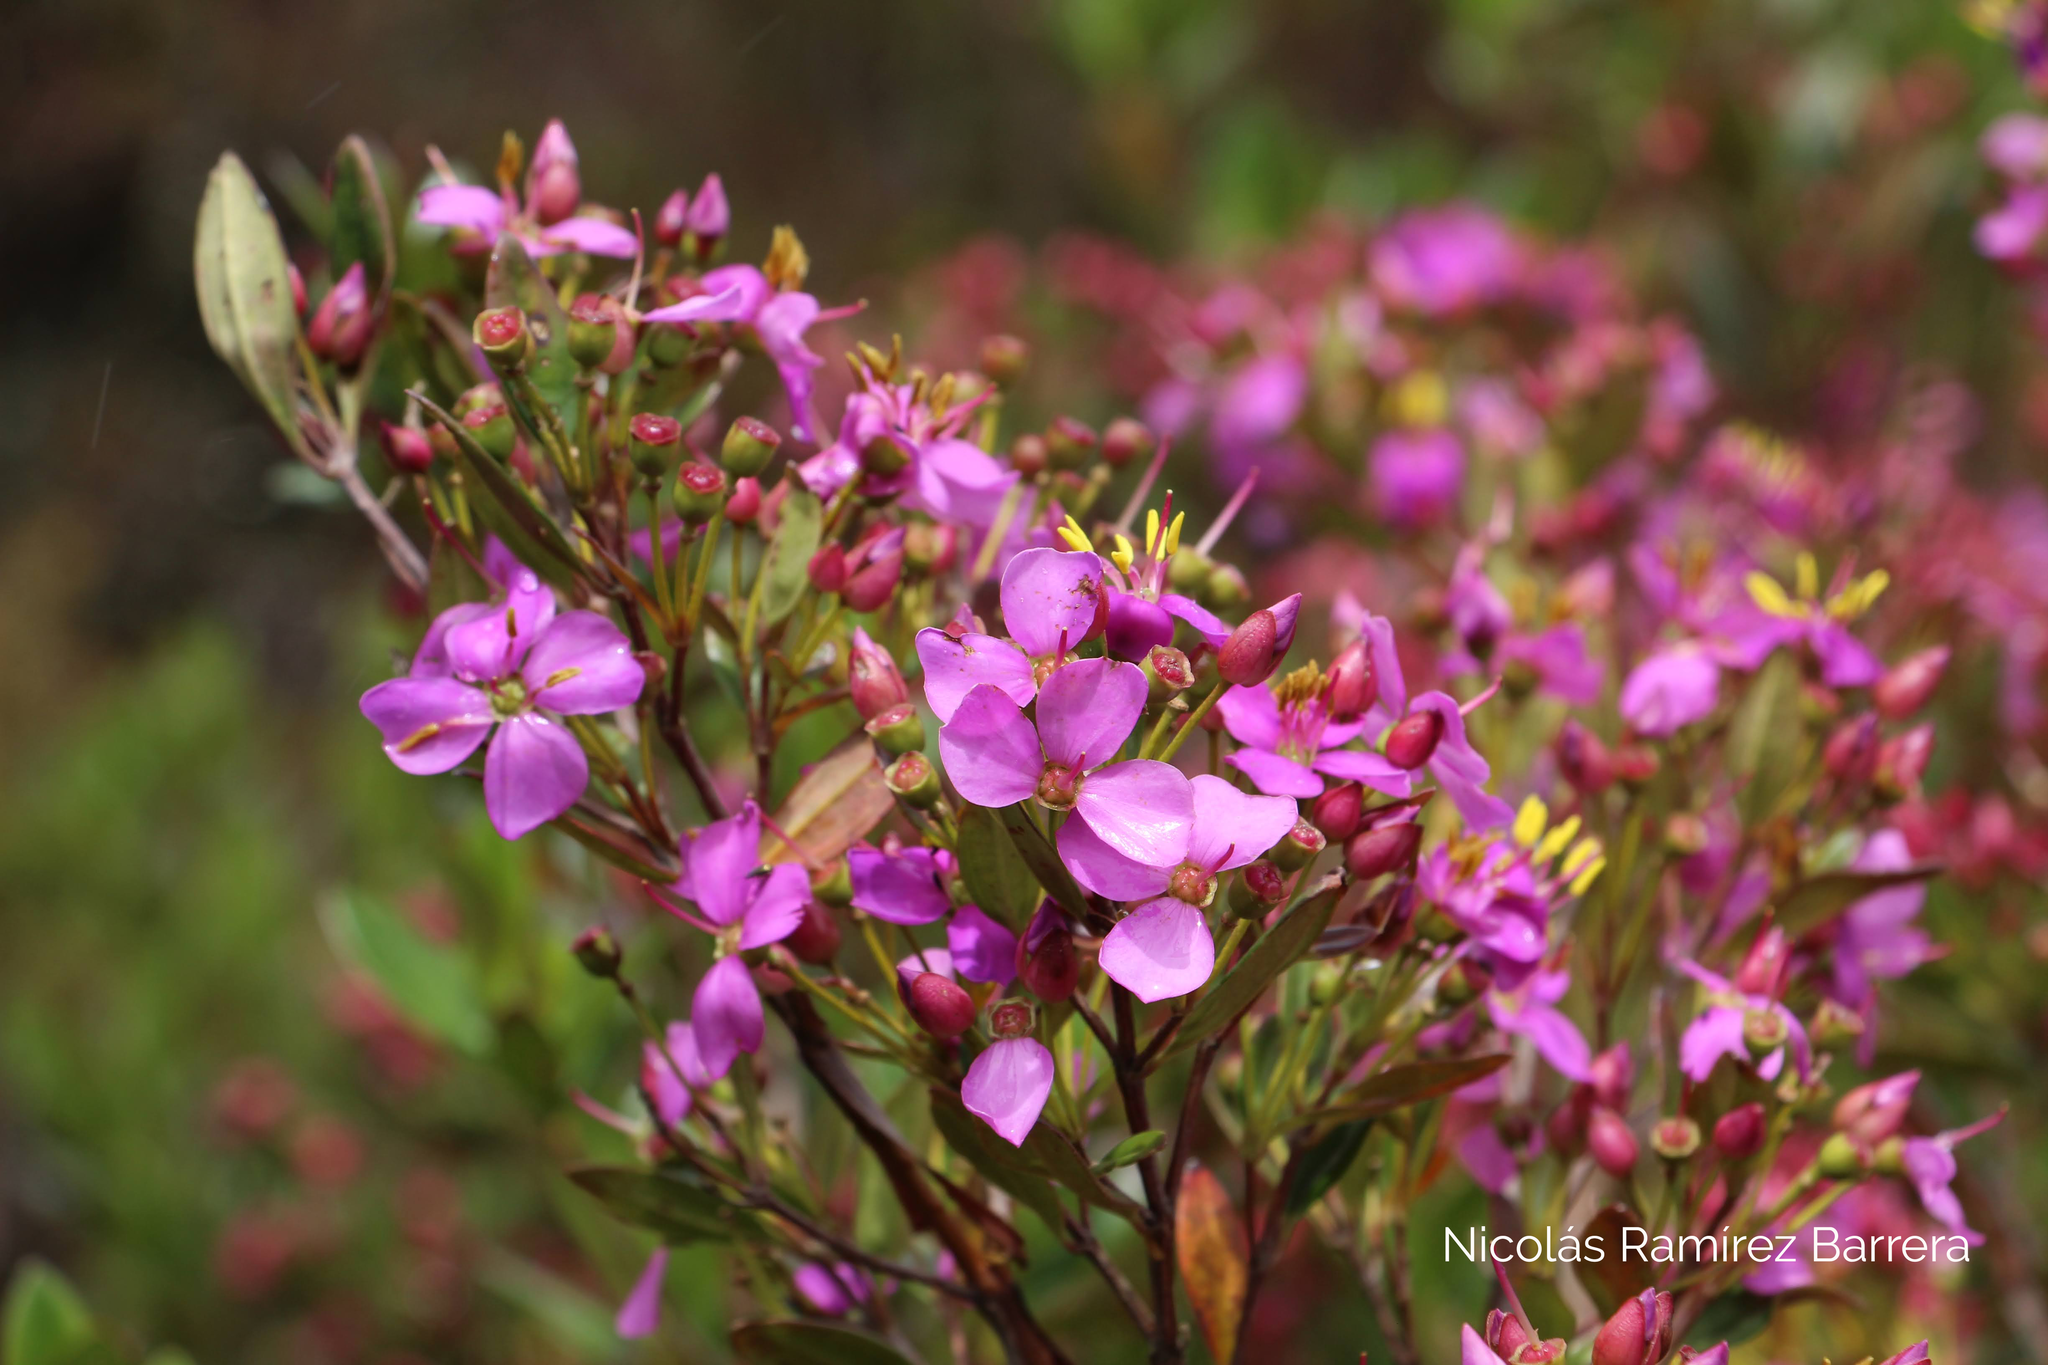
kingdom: Plantae
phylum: Tracheophyta
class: Magnoliopsida
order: Myrtales
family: Melastomataceae
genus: Bucquetia
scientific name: Bucquetia glutinosa
